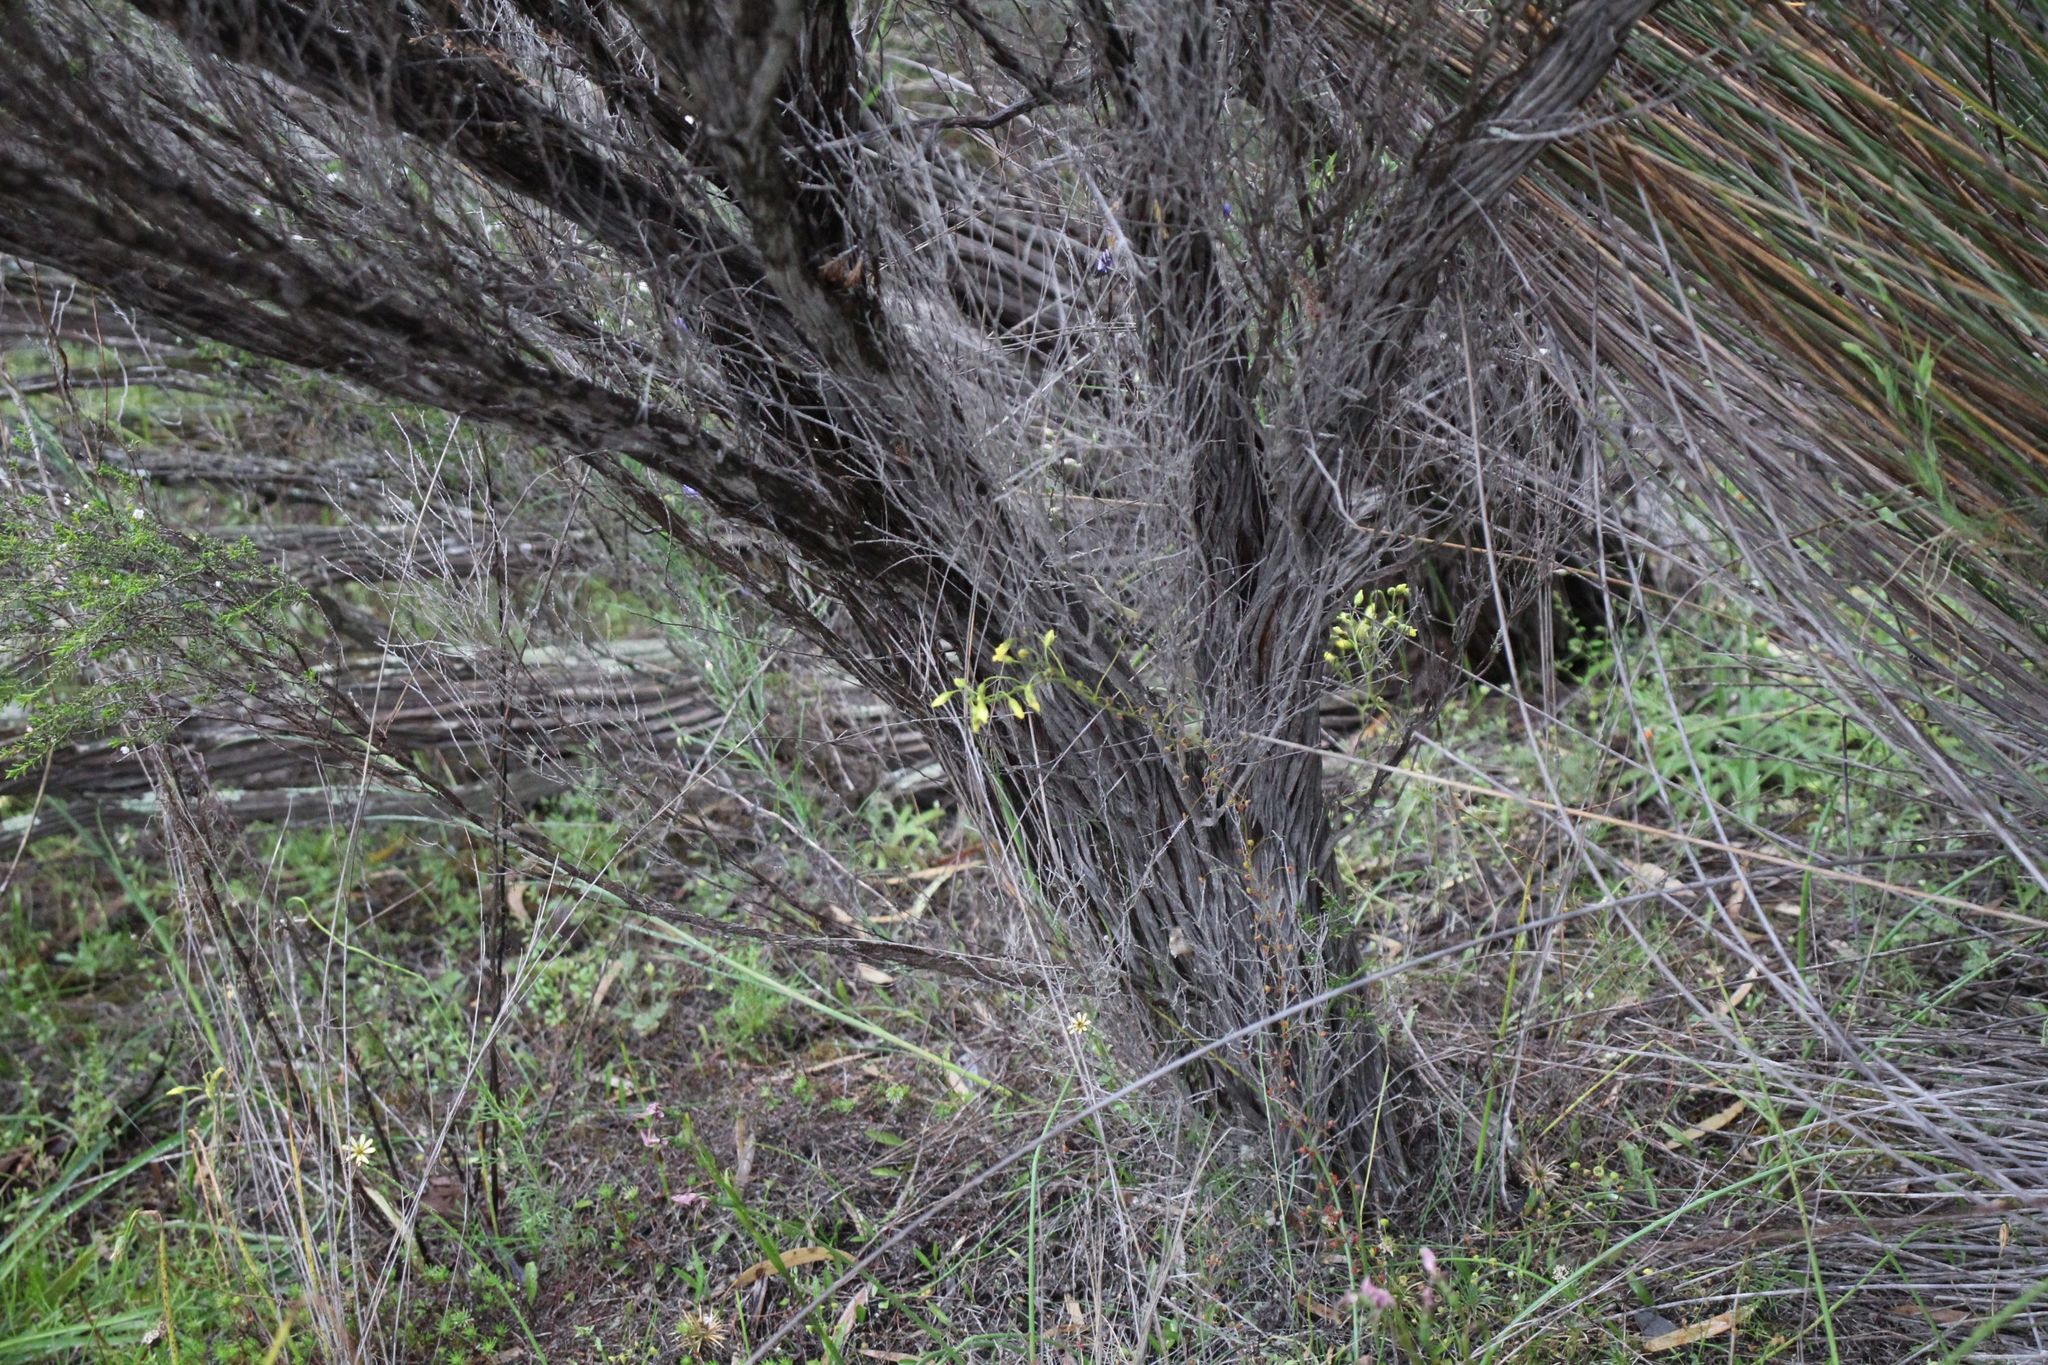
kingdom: Plantae
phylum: Tracheophyta
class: Magnoliopsida
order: Caryophyllales
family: Droseraceae
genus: Drosera
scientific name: Drosera subhirtella
